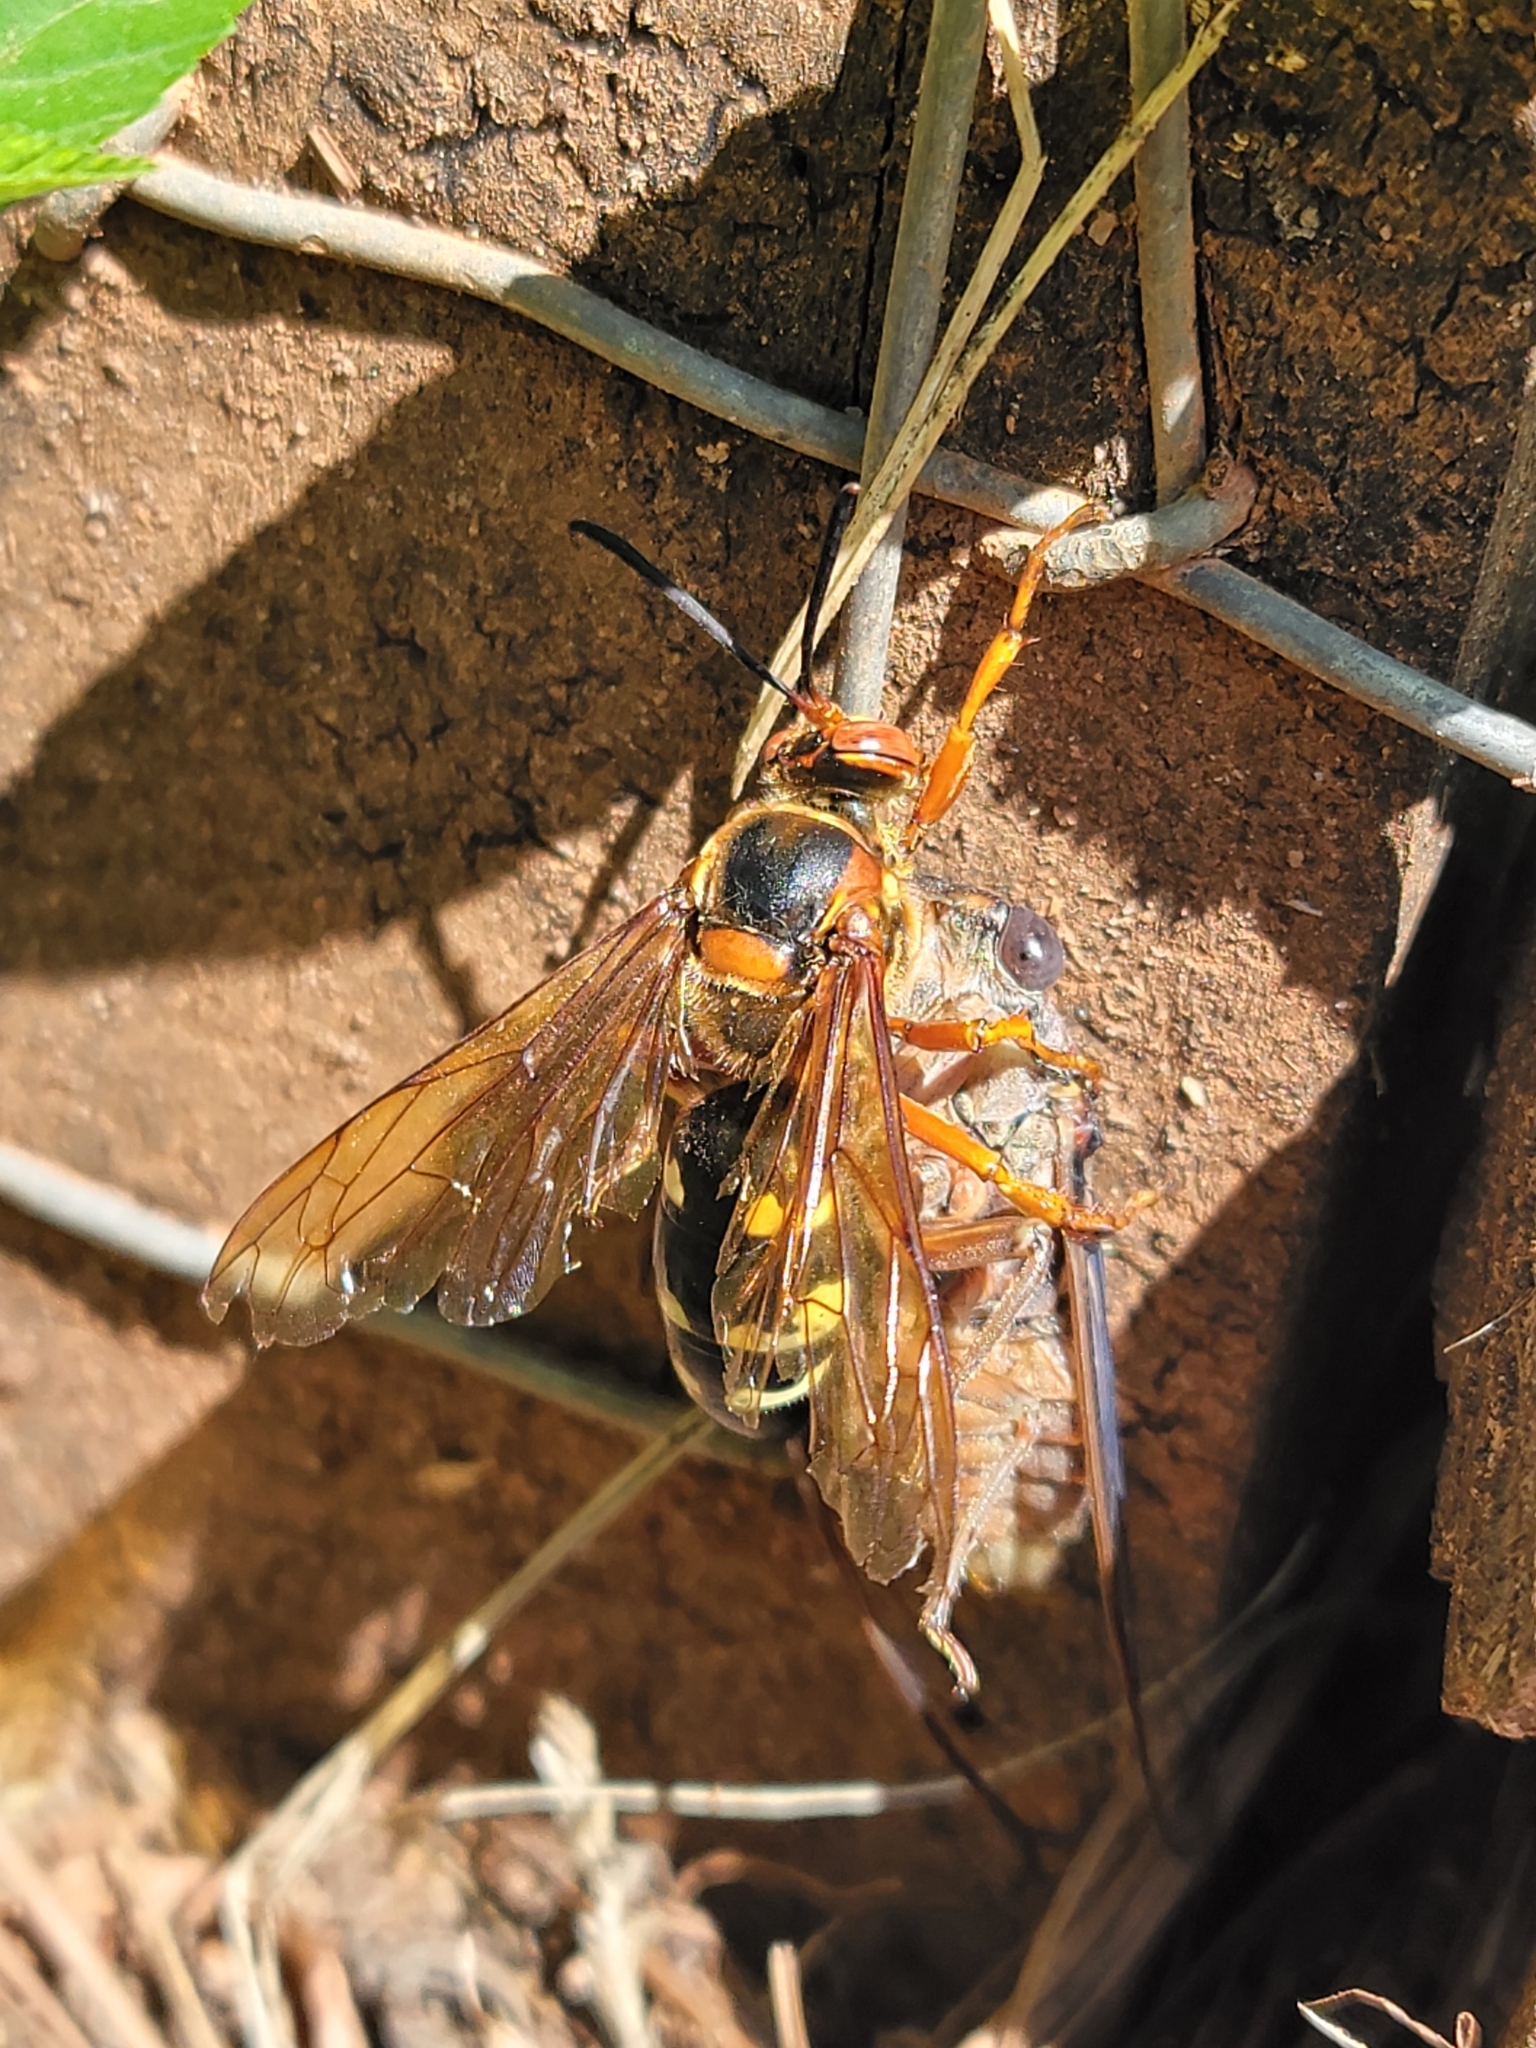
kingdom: Animalia
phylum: Arthropoda
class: Insecta
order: Hymenoptera
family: Crabronidae
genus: Sphecius
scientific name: Sphecius speciosus
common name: Cicada killer
